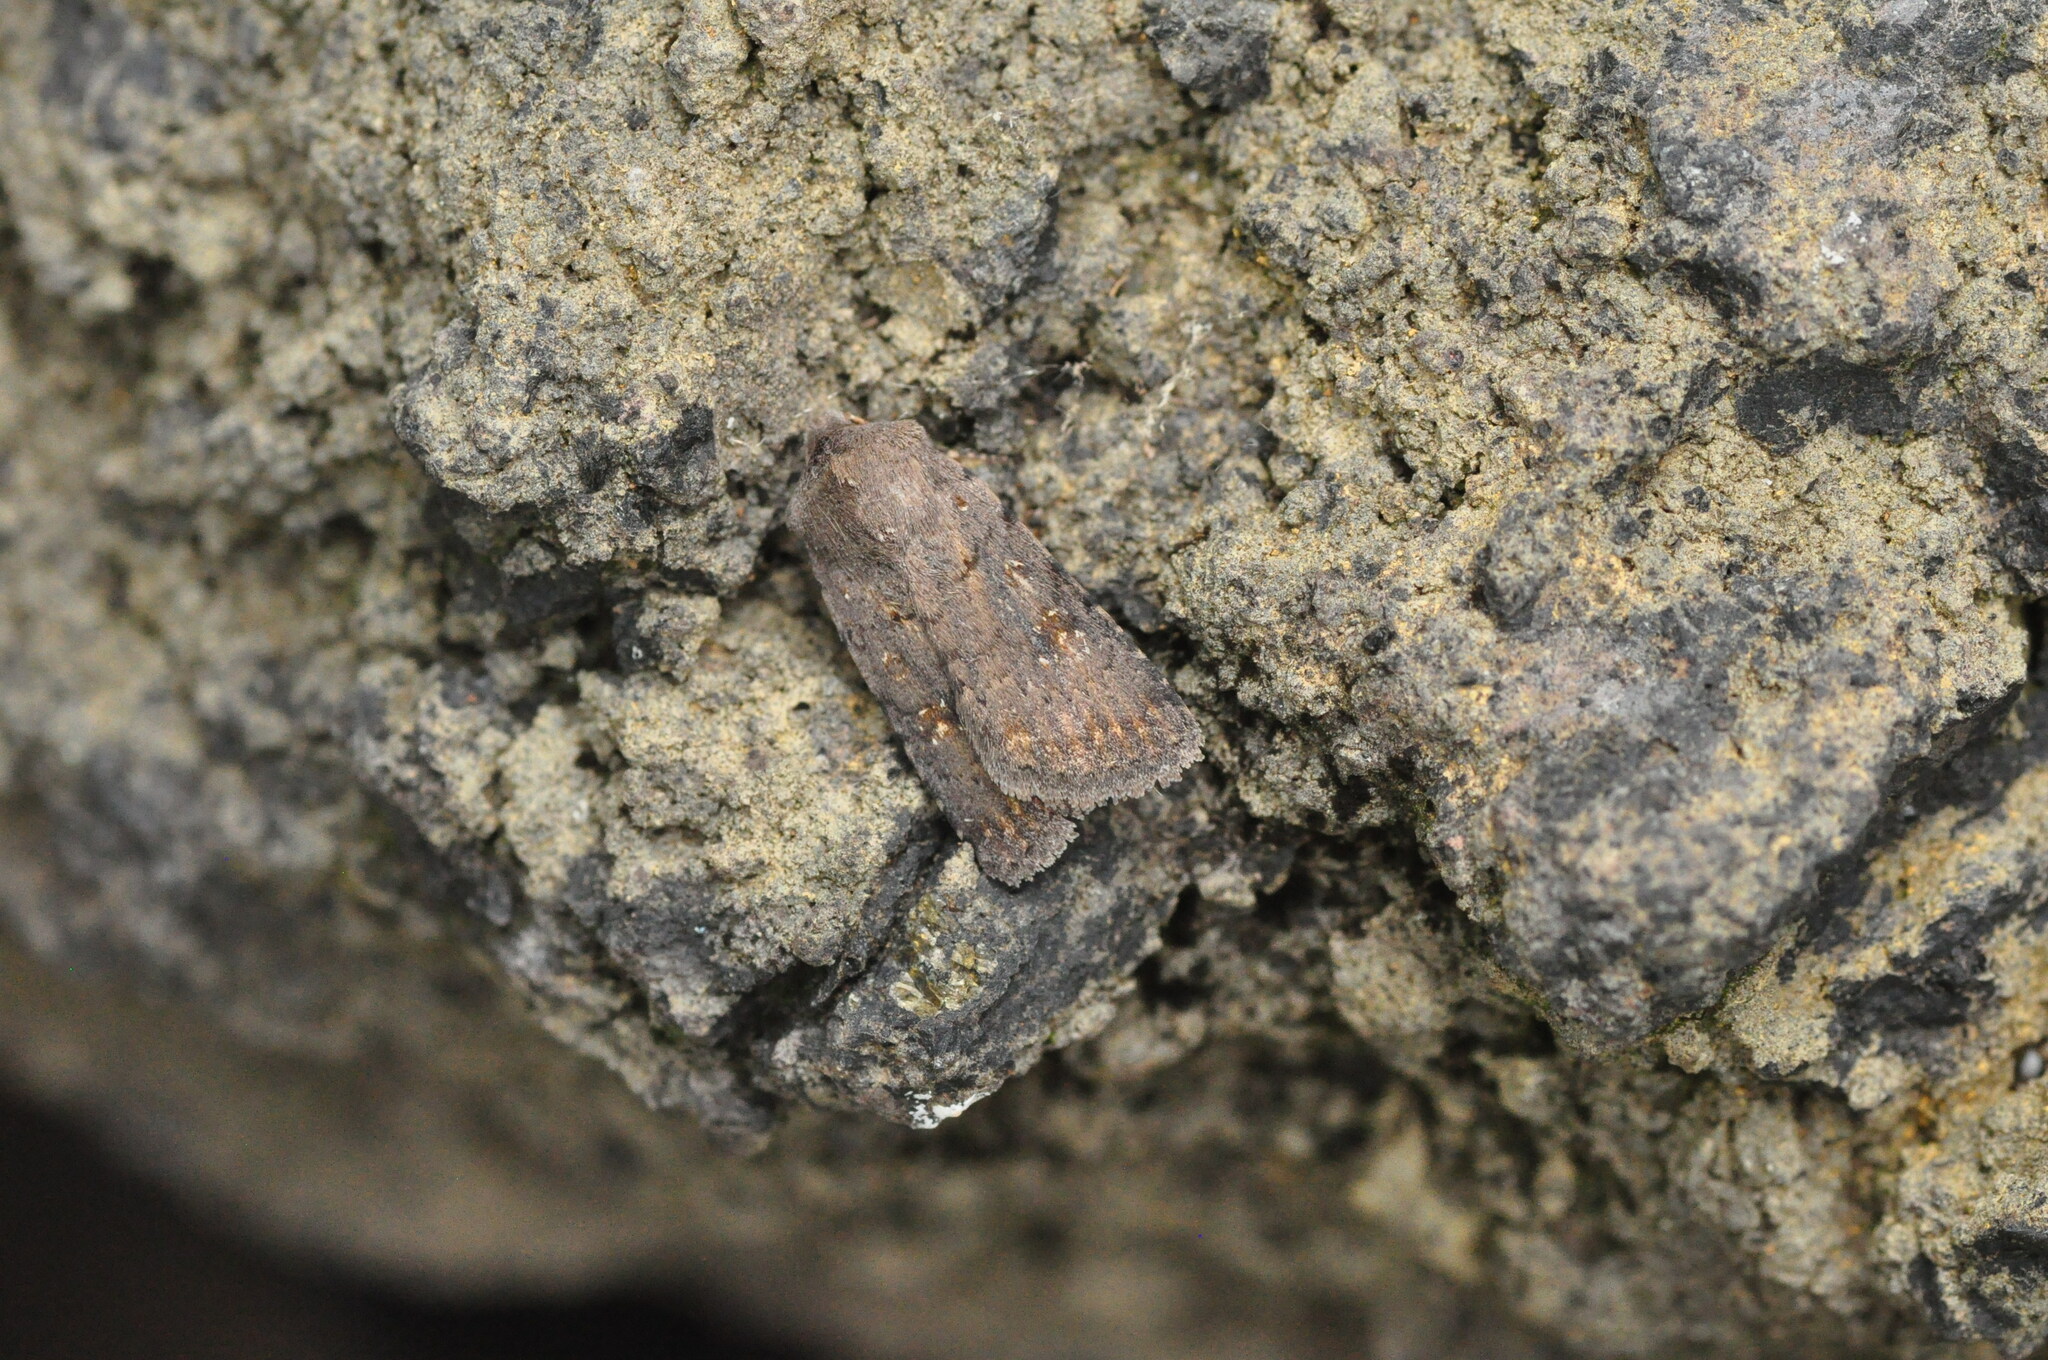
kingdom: Animalia
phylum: Arthropoda
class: Insecta
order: Lepidoptera
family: Noctuidae
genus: Caradrina
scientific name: Caradrina rebeli
